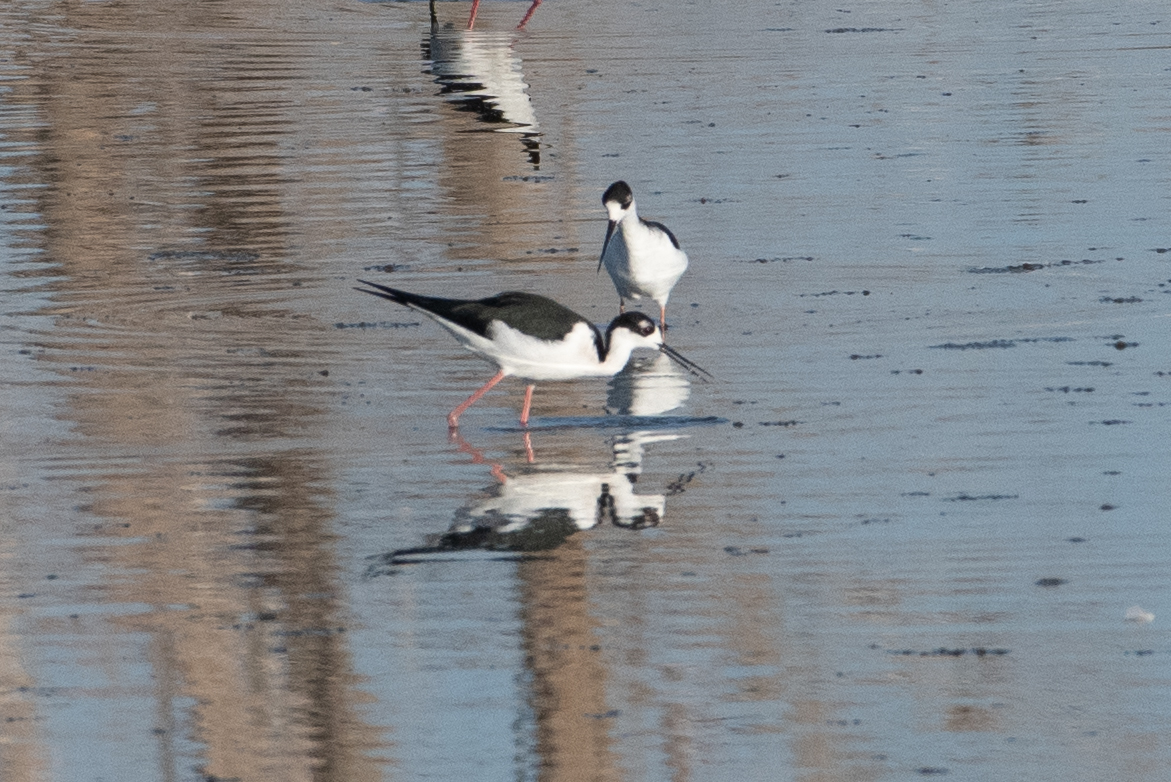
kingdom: Animalia
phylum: Chordata
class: Aves
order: Charadriiformes
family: Recurvirostridae
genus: Himantopus
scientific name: Himantopus mexicanus
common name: Black-necked stilt
